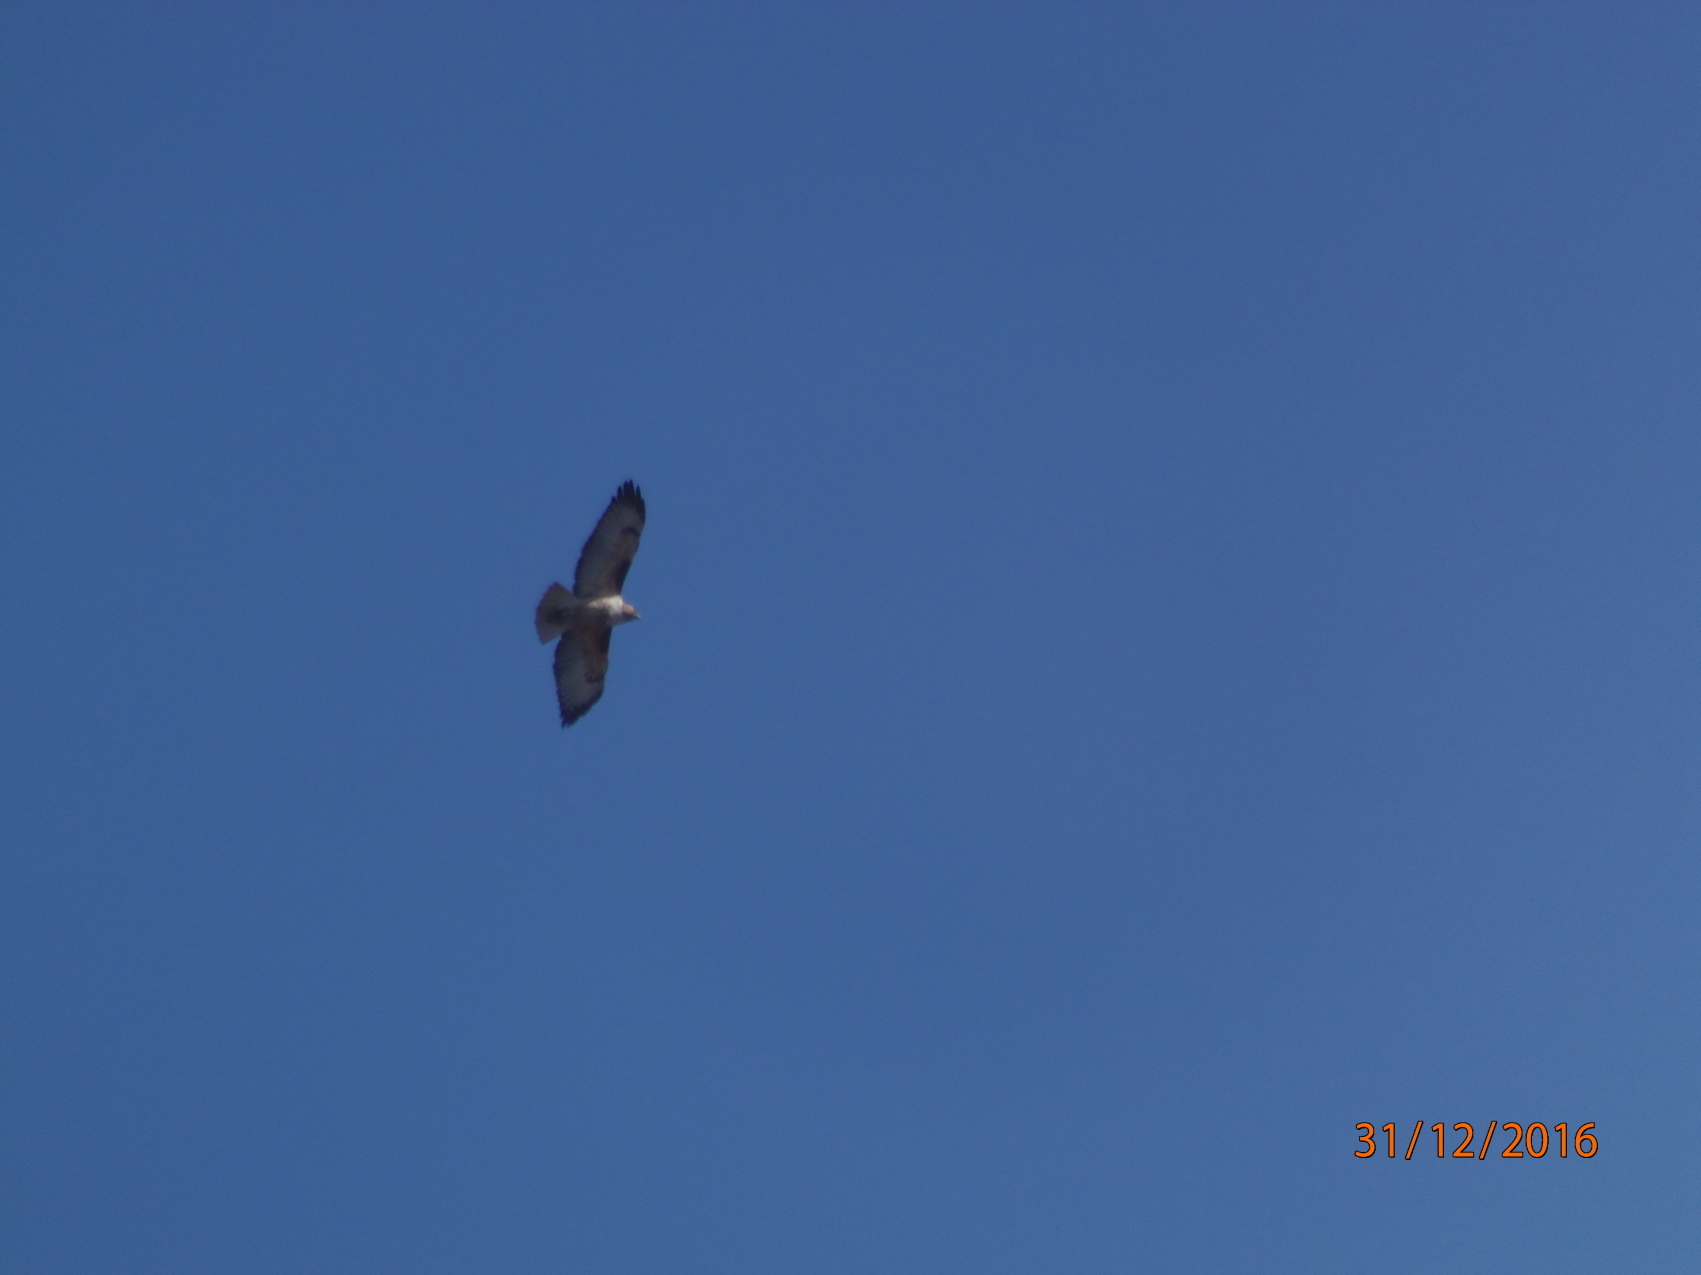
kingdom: Animalia
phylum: Chordata
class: Aves
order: Accipitriformes
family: Accipitridae
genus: Buteo
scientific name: Buteo jamaicensis
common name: Red-tailed hawk
